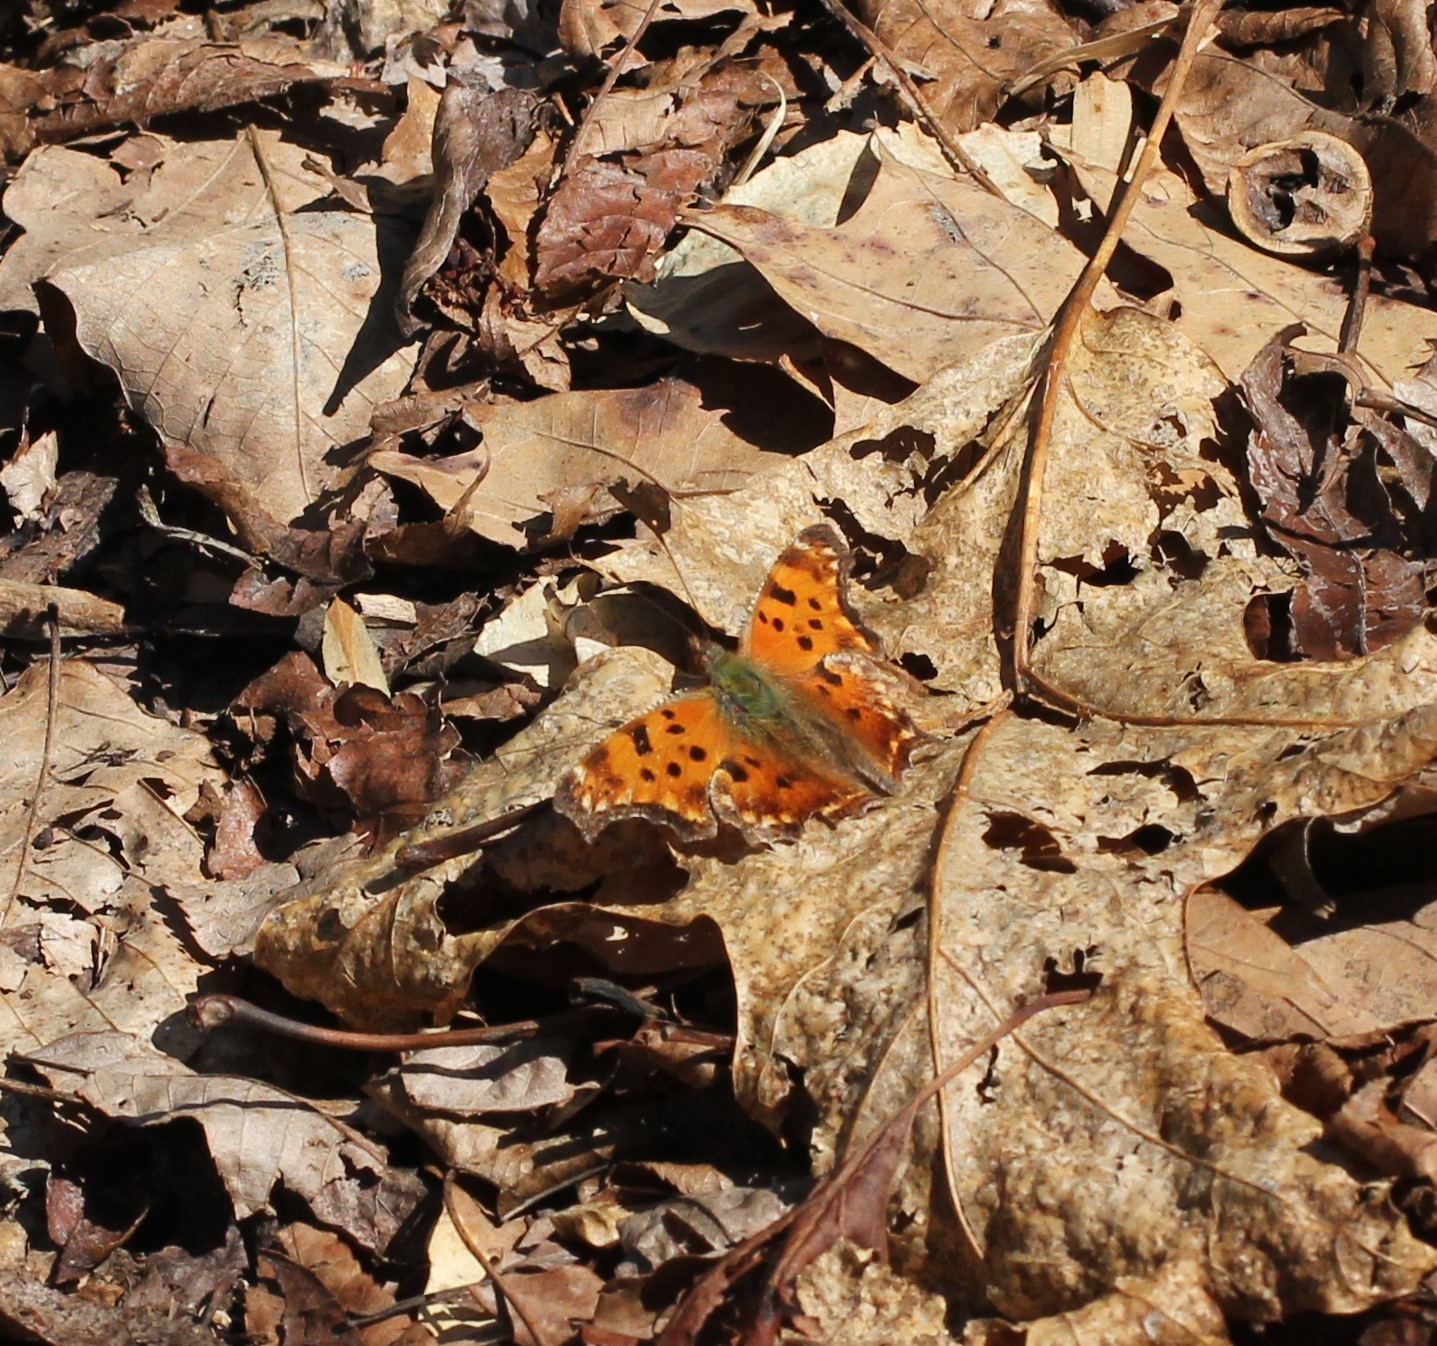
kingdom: Animalia
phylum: Arthropoda
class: Insecta
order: Lepidoptera
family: Nymphalidae
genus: Polygonia
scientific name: Polygonia comma
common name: Eastern comma
